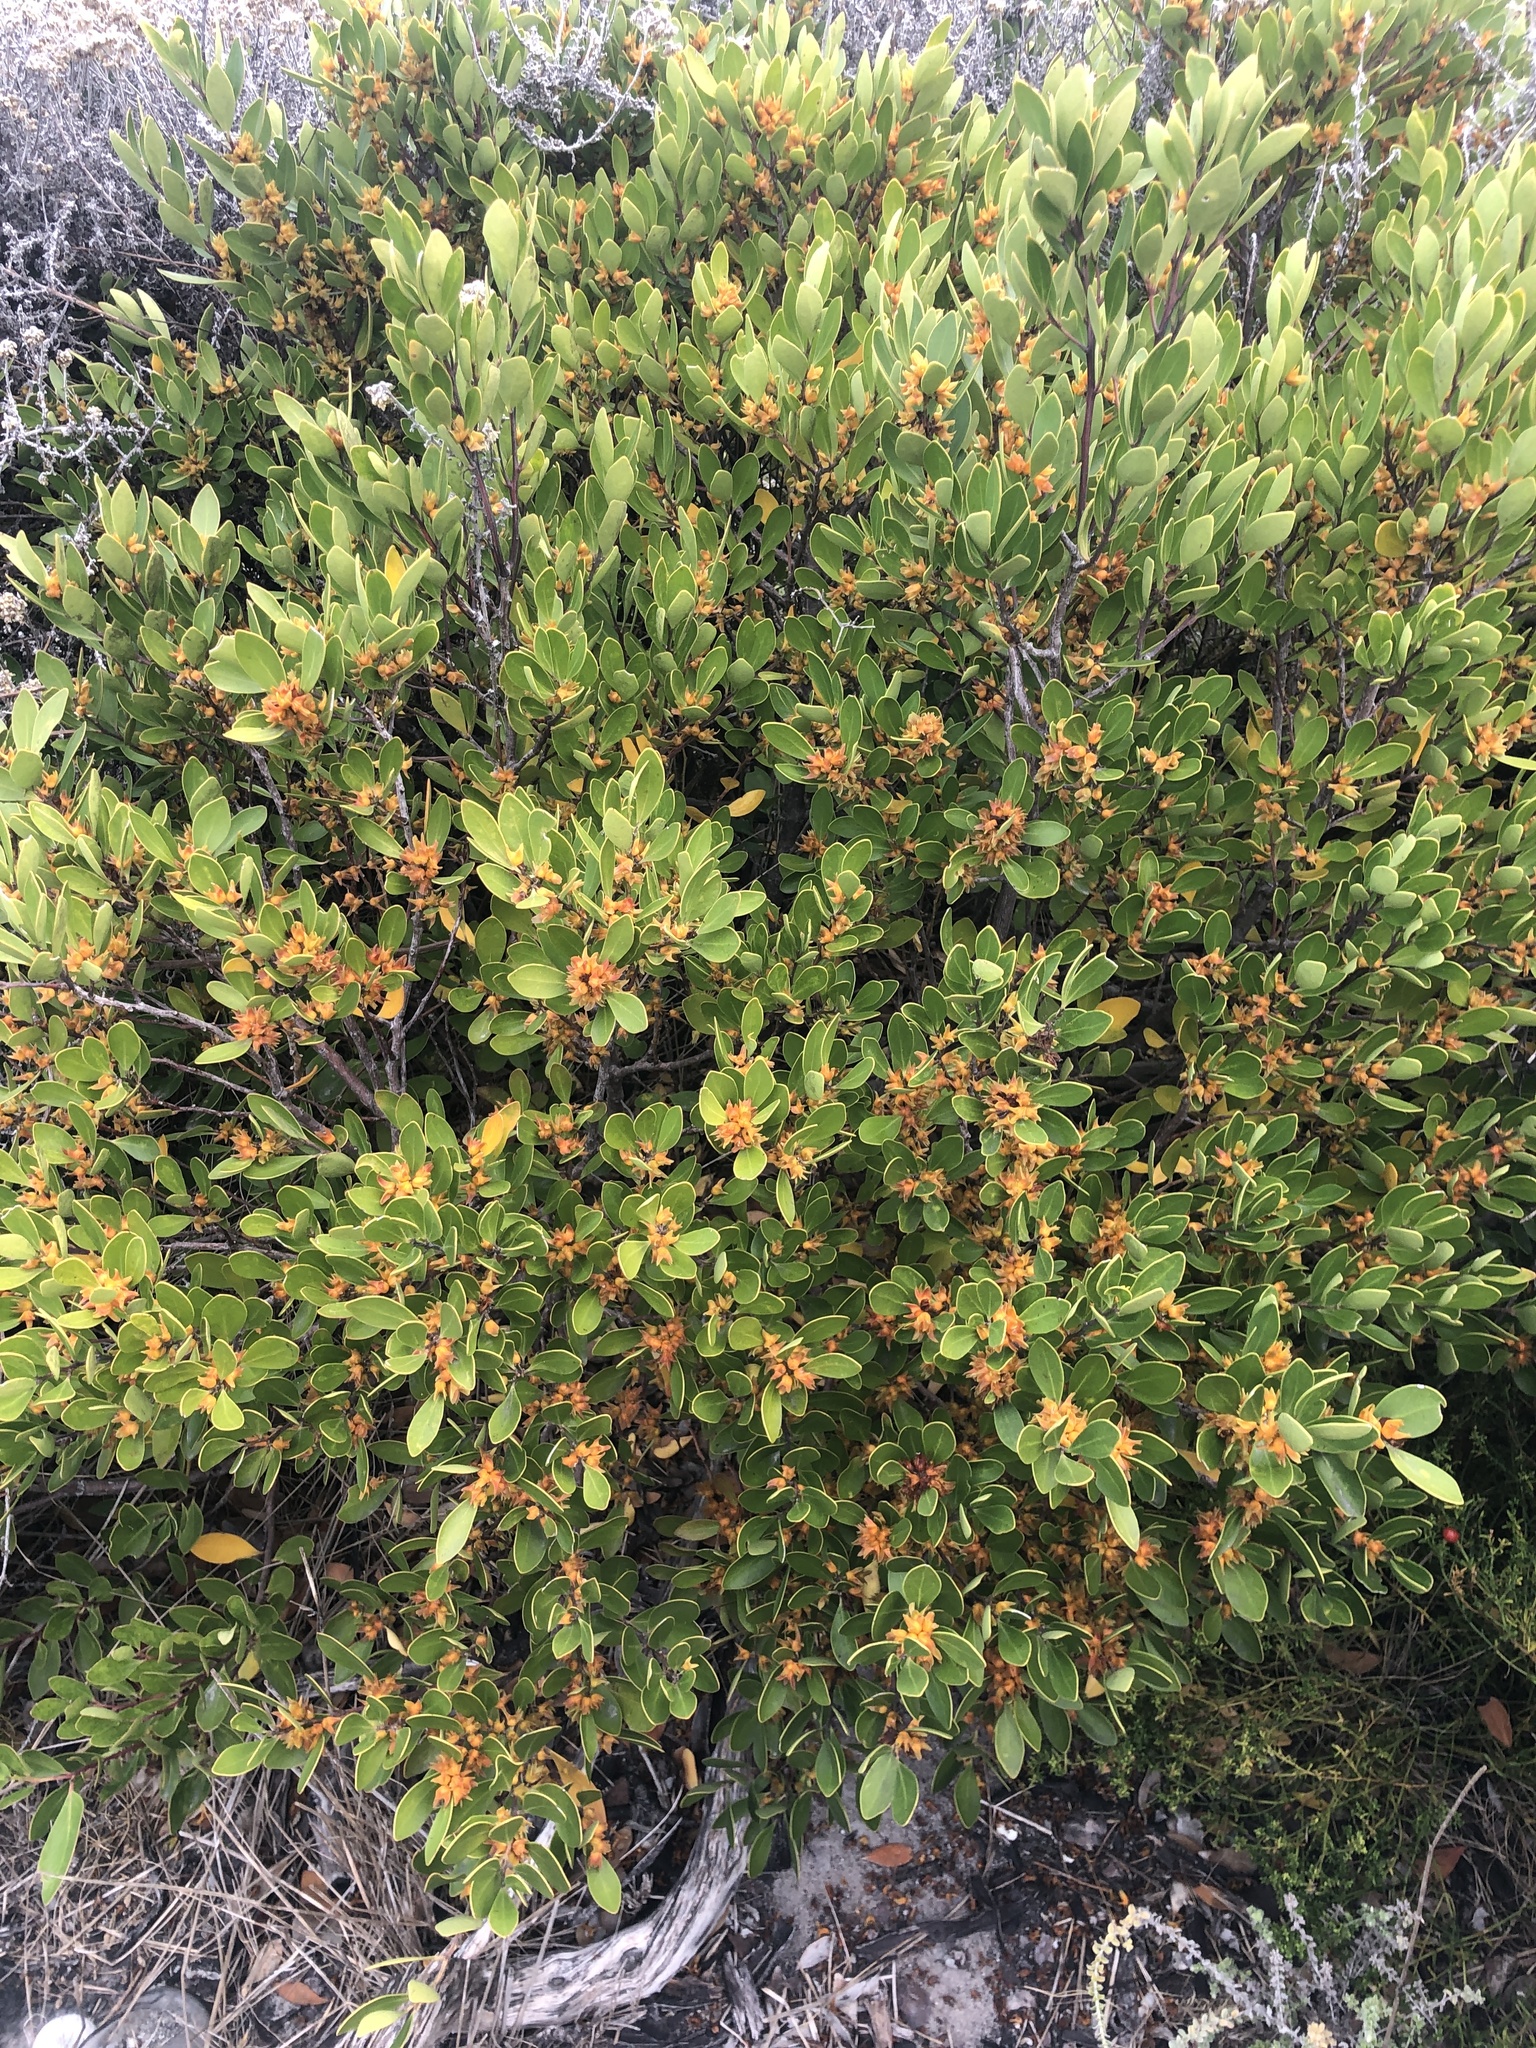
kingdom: Plantae
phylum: Tracheophyta
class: Magnoliopsida
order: Celastrales
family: Celastraceae
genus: Pterocelastrus
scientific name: Pterocelastrus tricuspidatus
